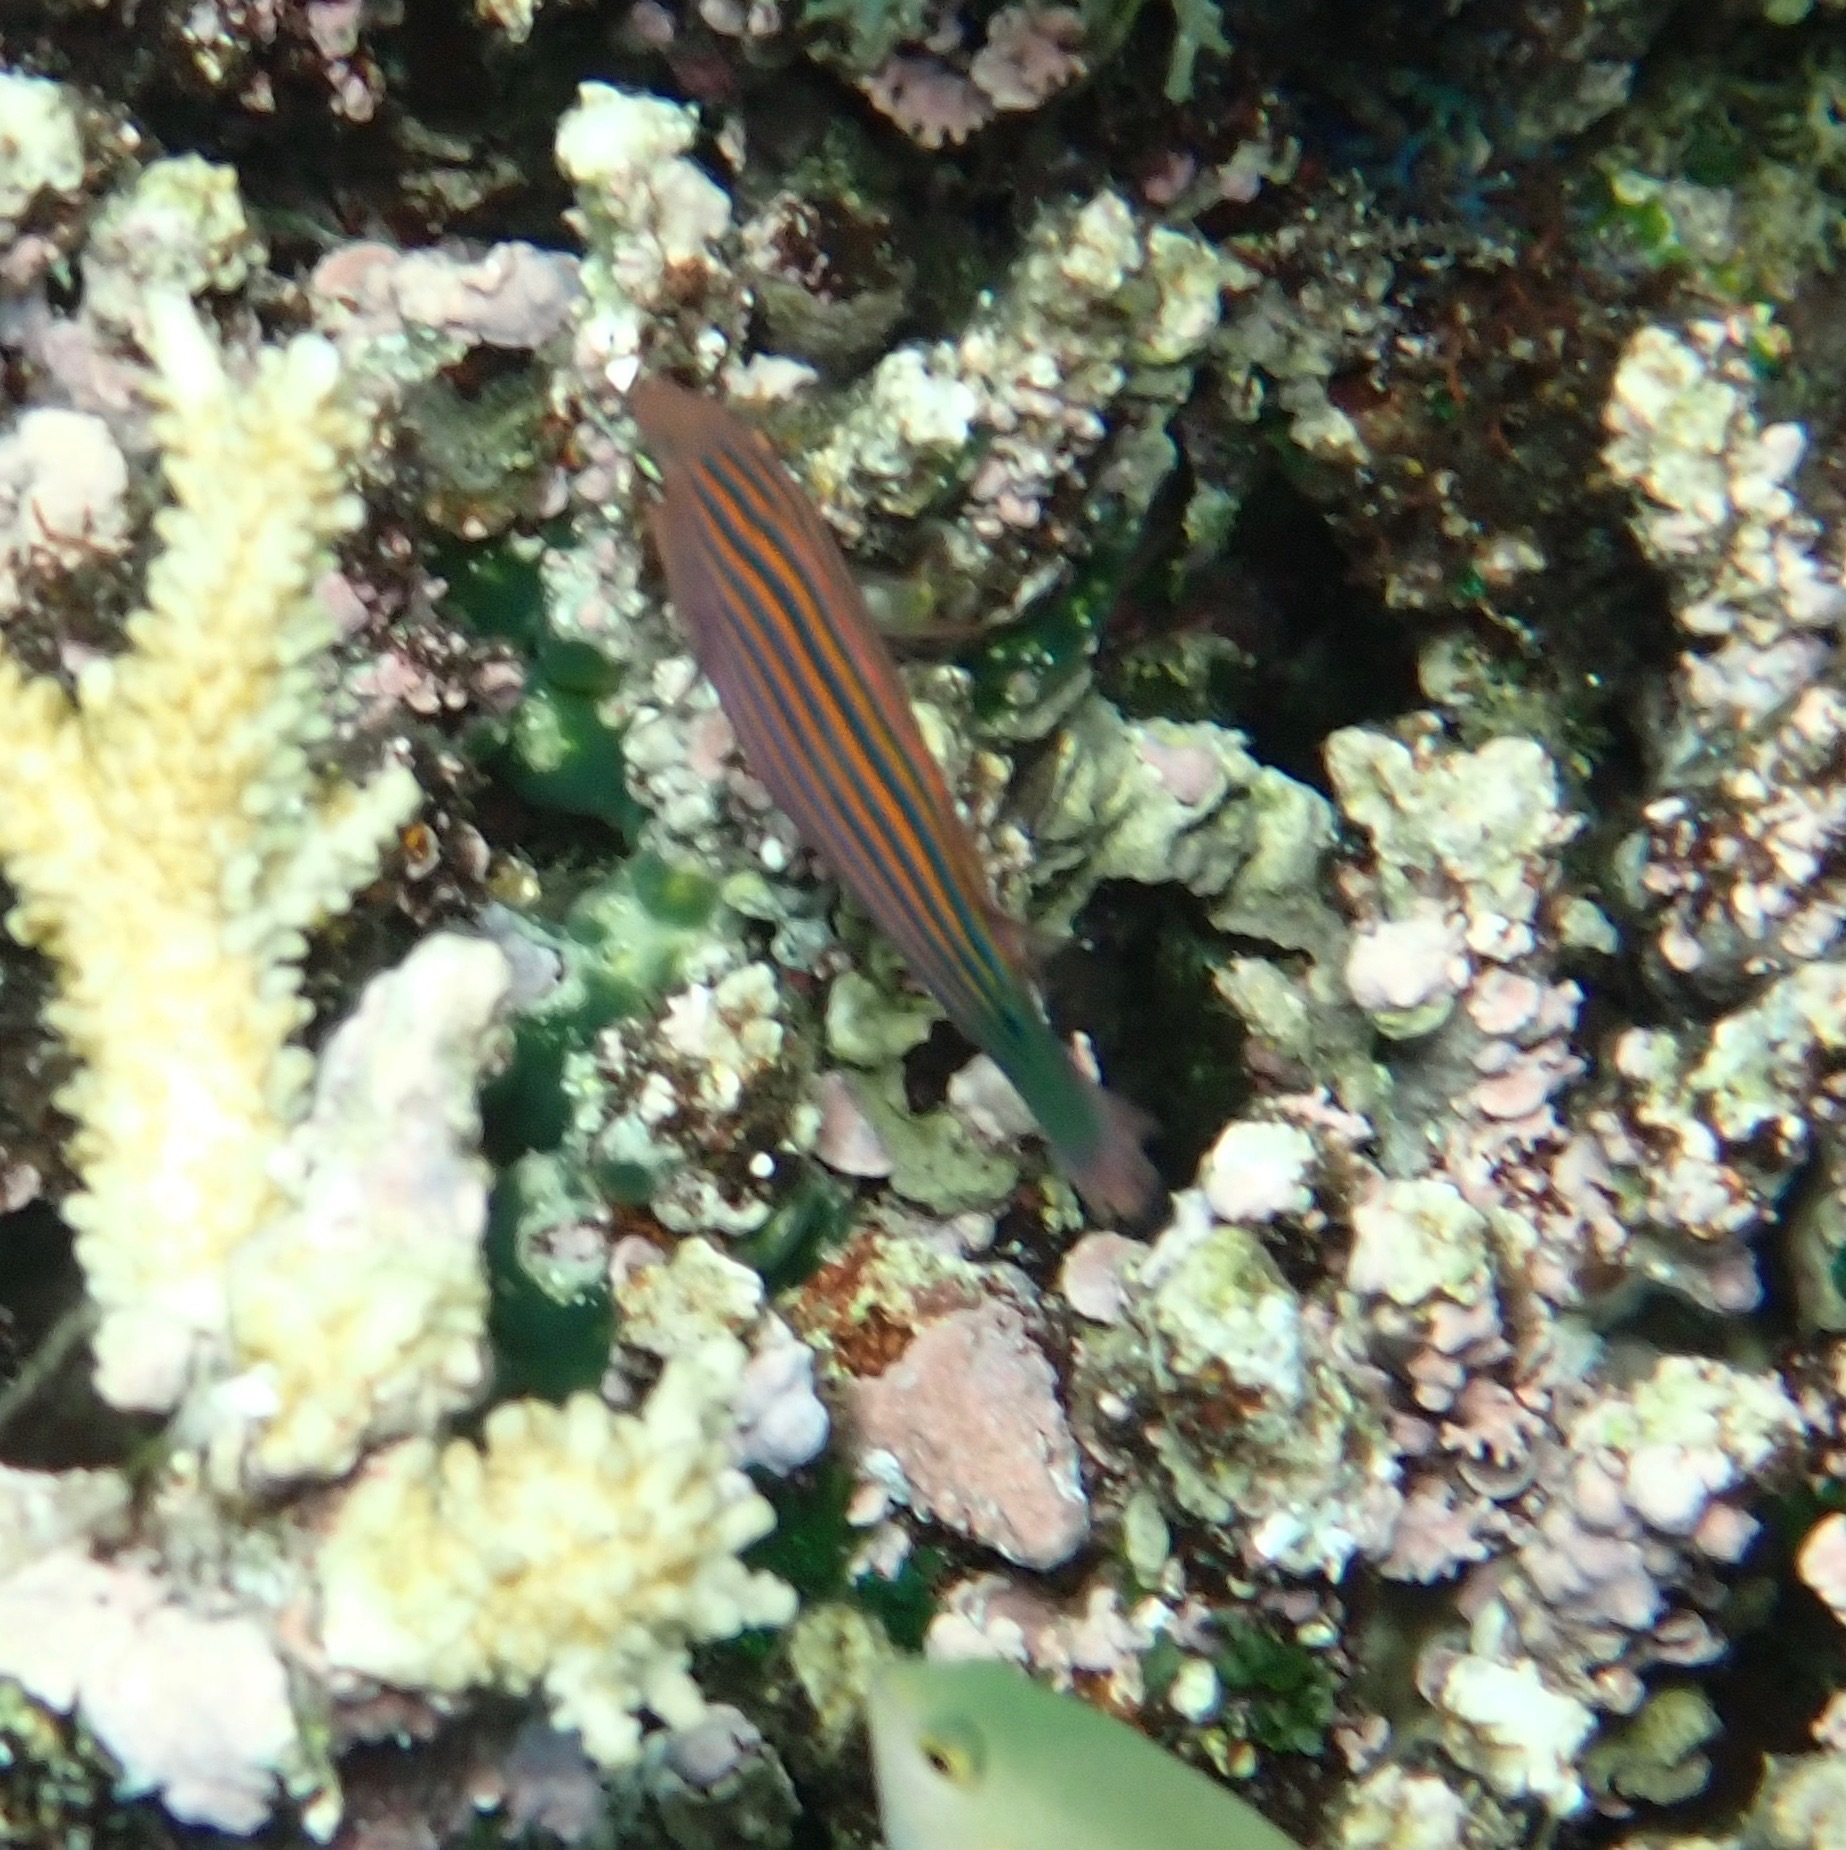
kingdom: Animalia
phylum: Chordata
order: Perciformes
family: Labridae
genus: Pseudocheilinus
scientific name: Pseudocheilinus hexataenia
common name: Sixline wrasse
